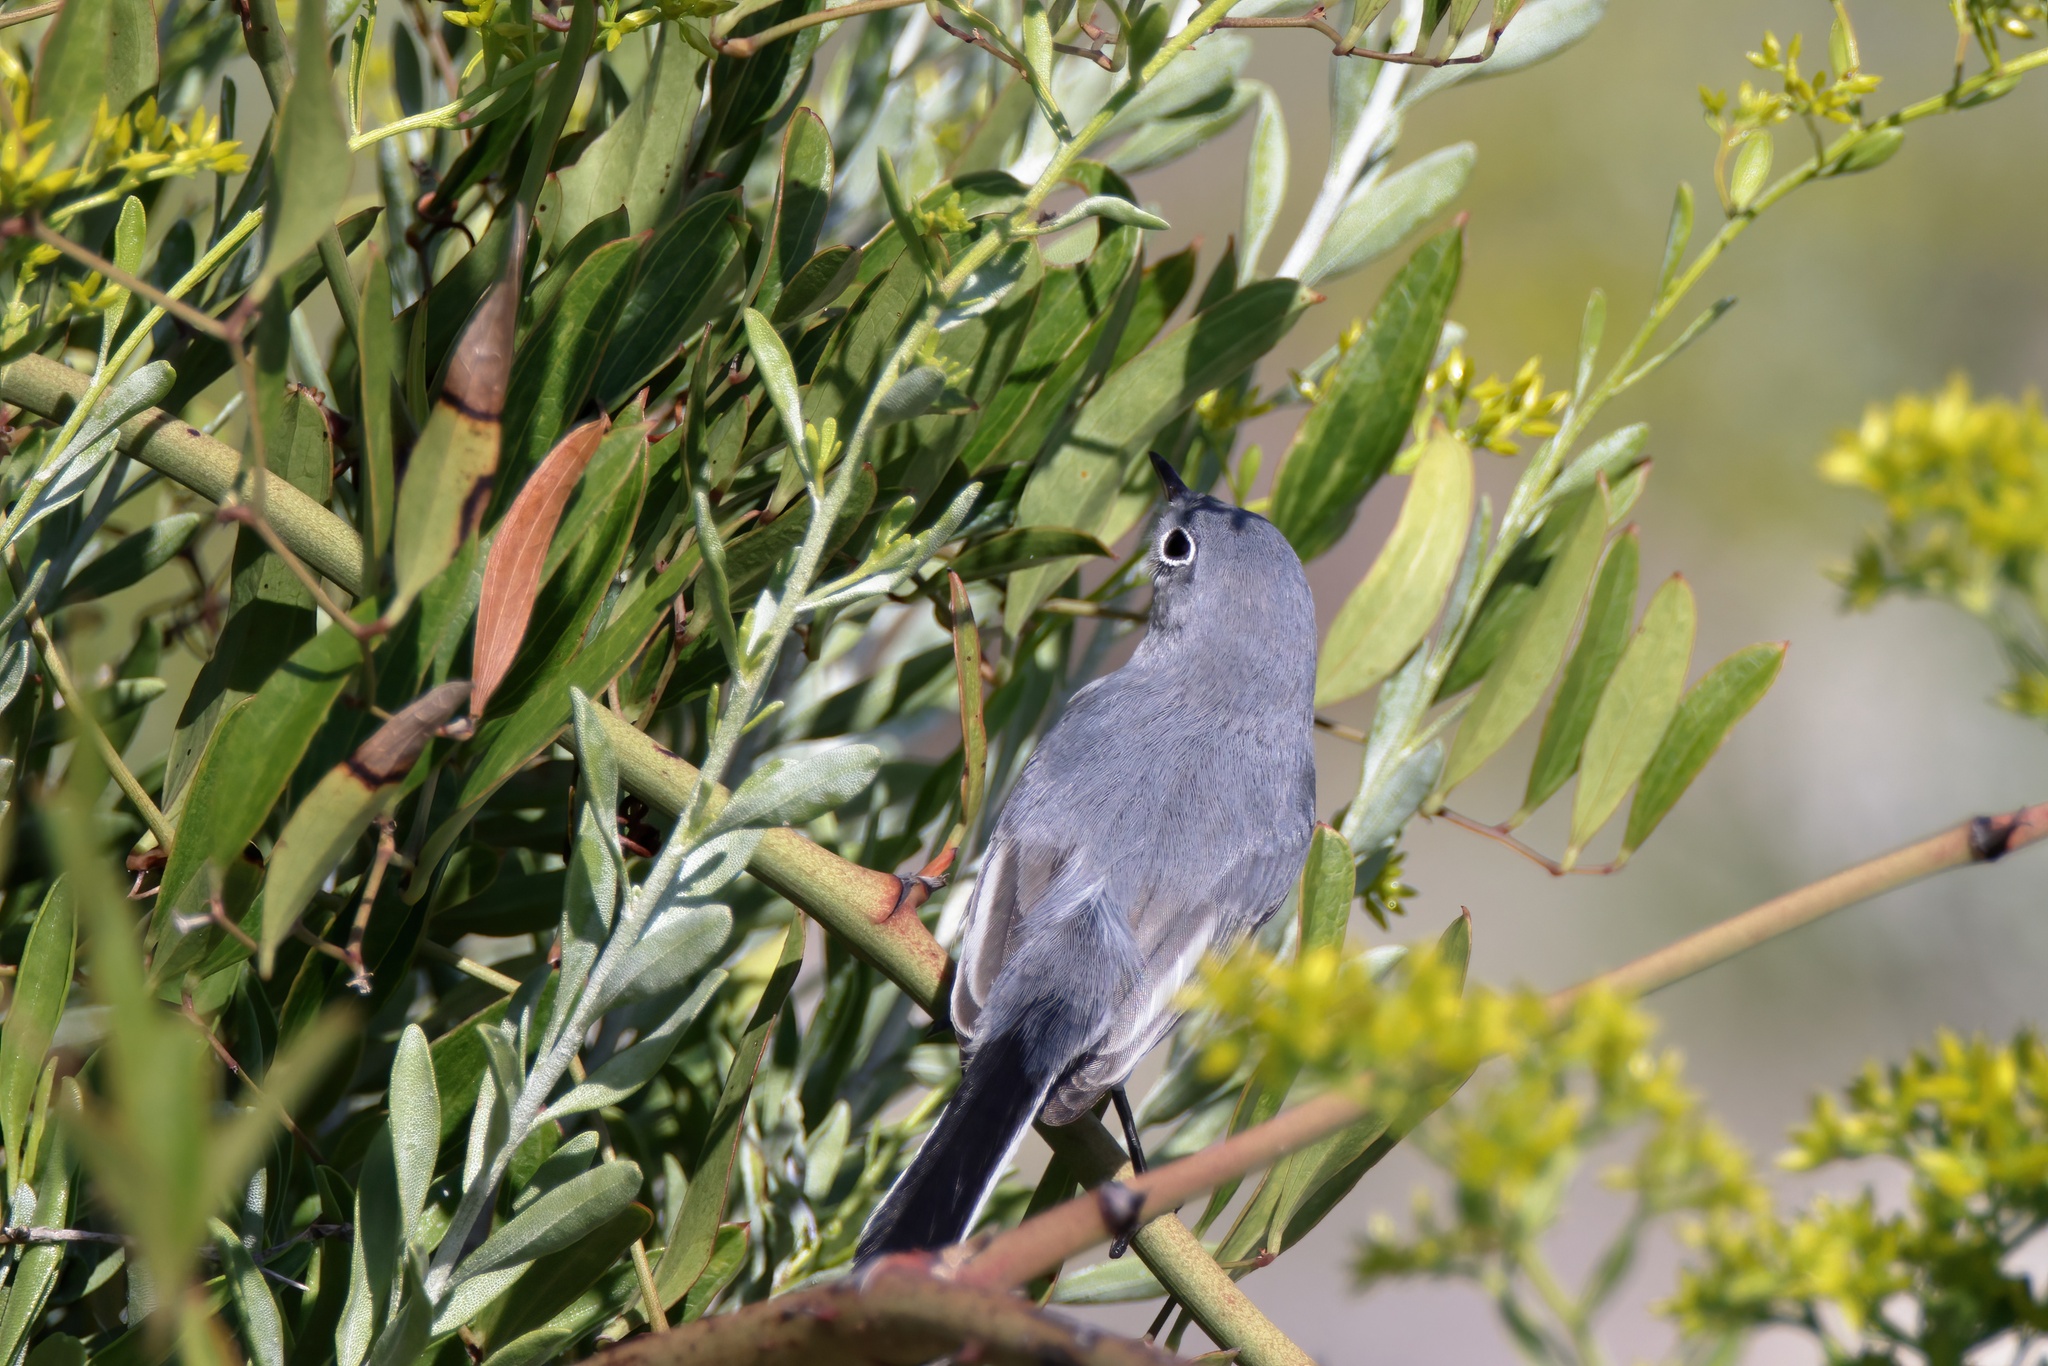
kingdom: Animalia
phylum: Chordata
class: Aves
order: Passeriformes
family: Polioptilidae
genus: Polioptila
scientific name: Polioptila caerulea
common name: Blue-gray gnatcatcher
